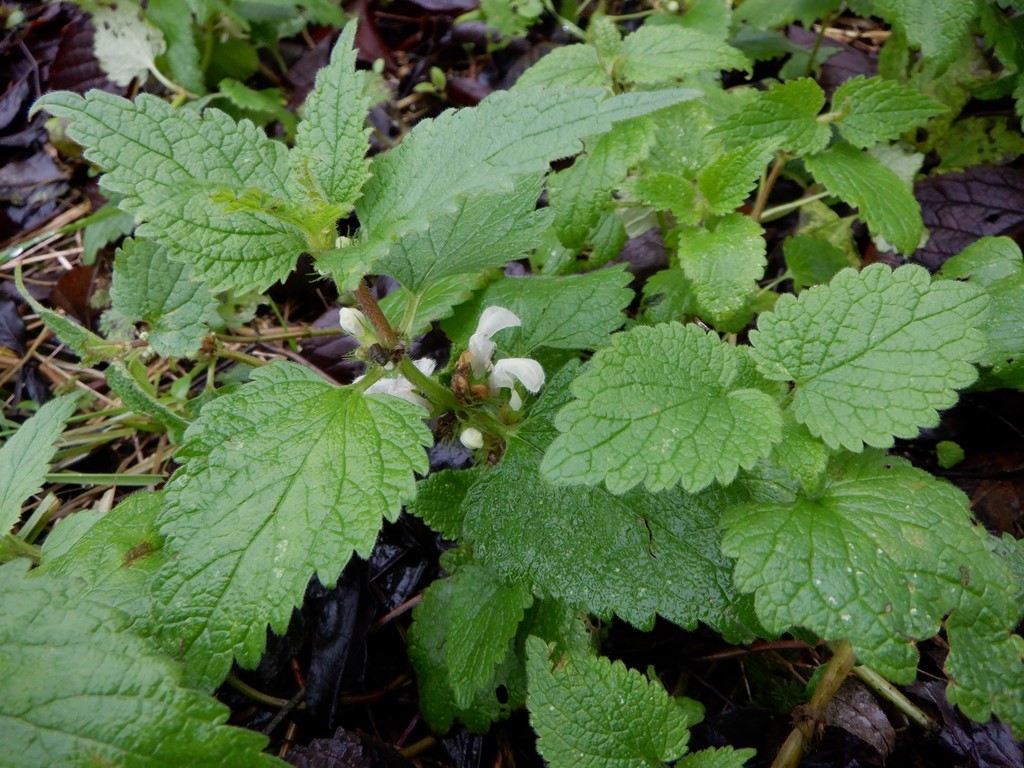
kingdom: Plantae
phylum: Tracheophyta
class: Magnoliopsida
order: Lamiales
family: Lamiaceae
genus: Lamium
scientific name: Lamium album
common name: White dead-nettle
